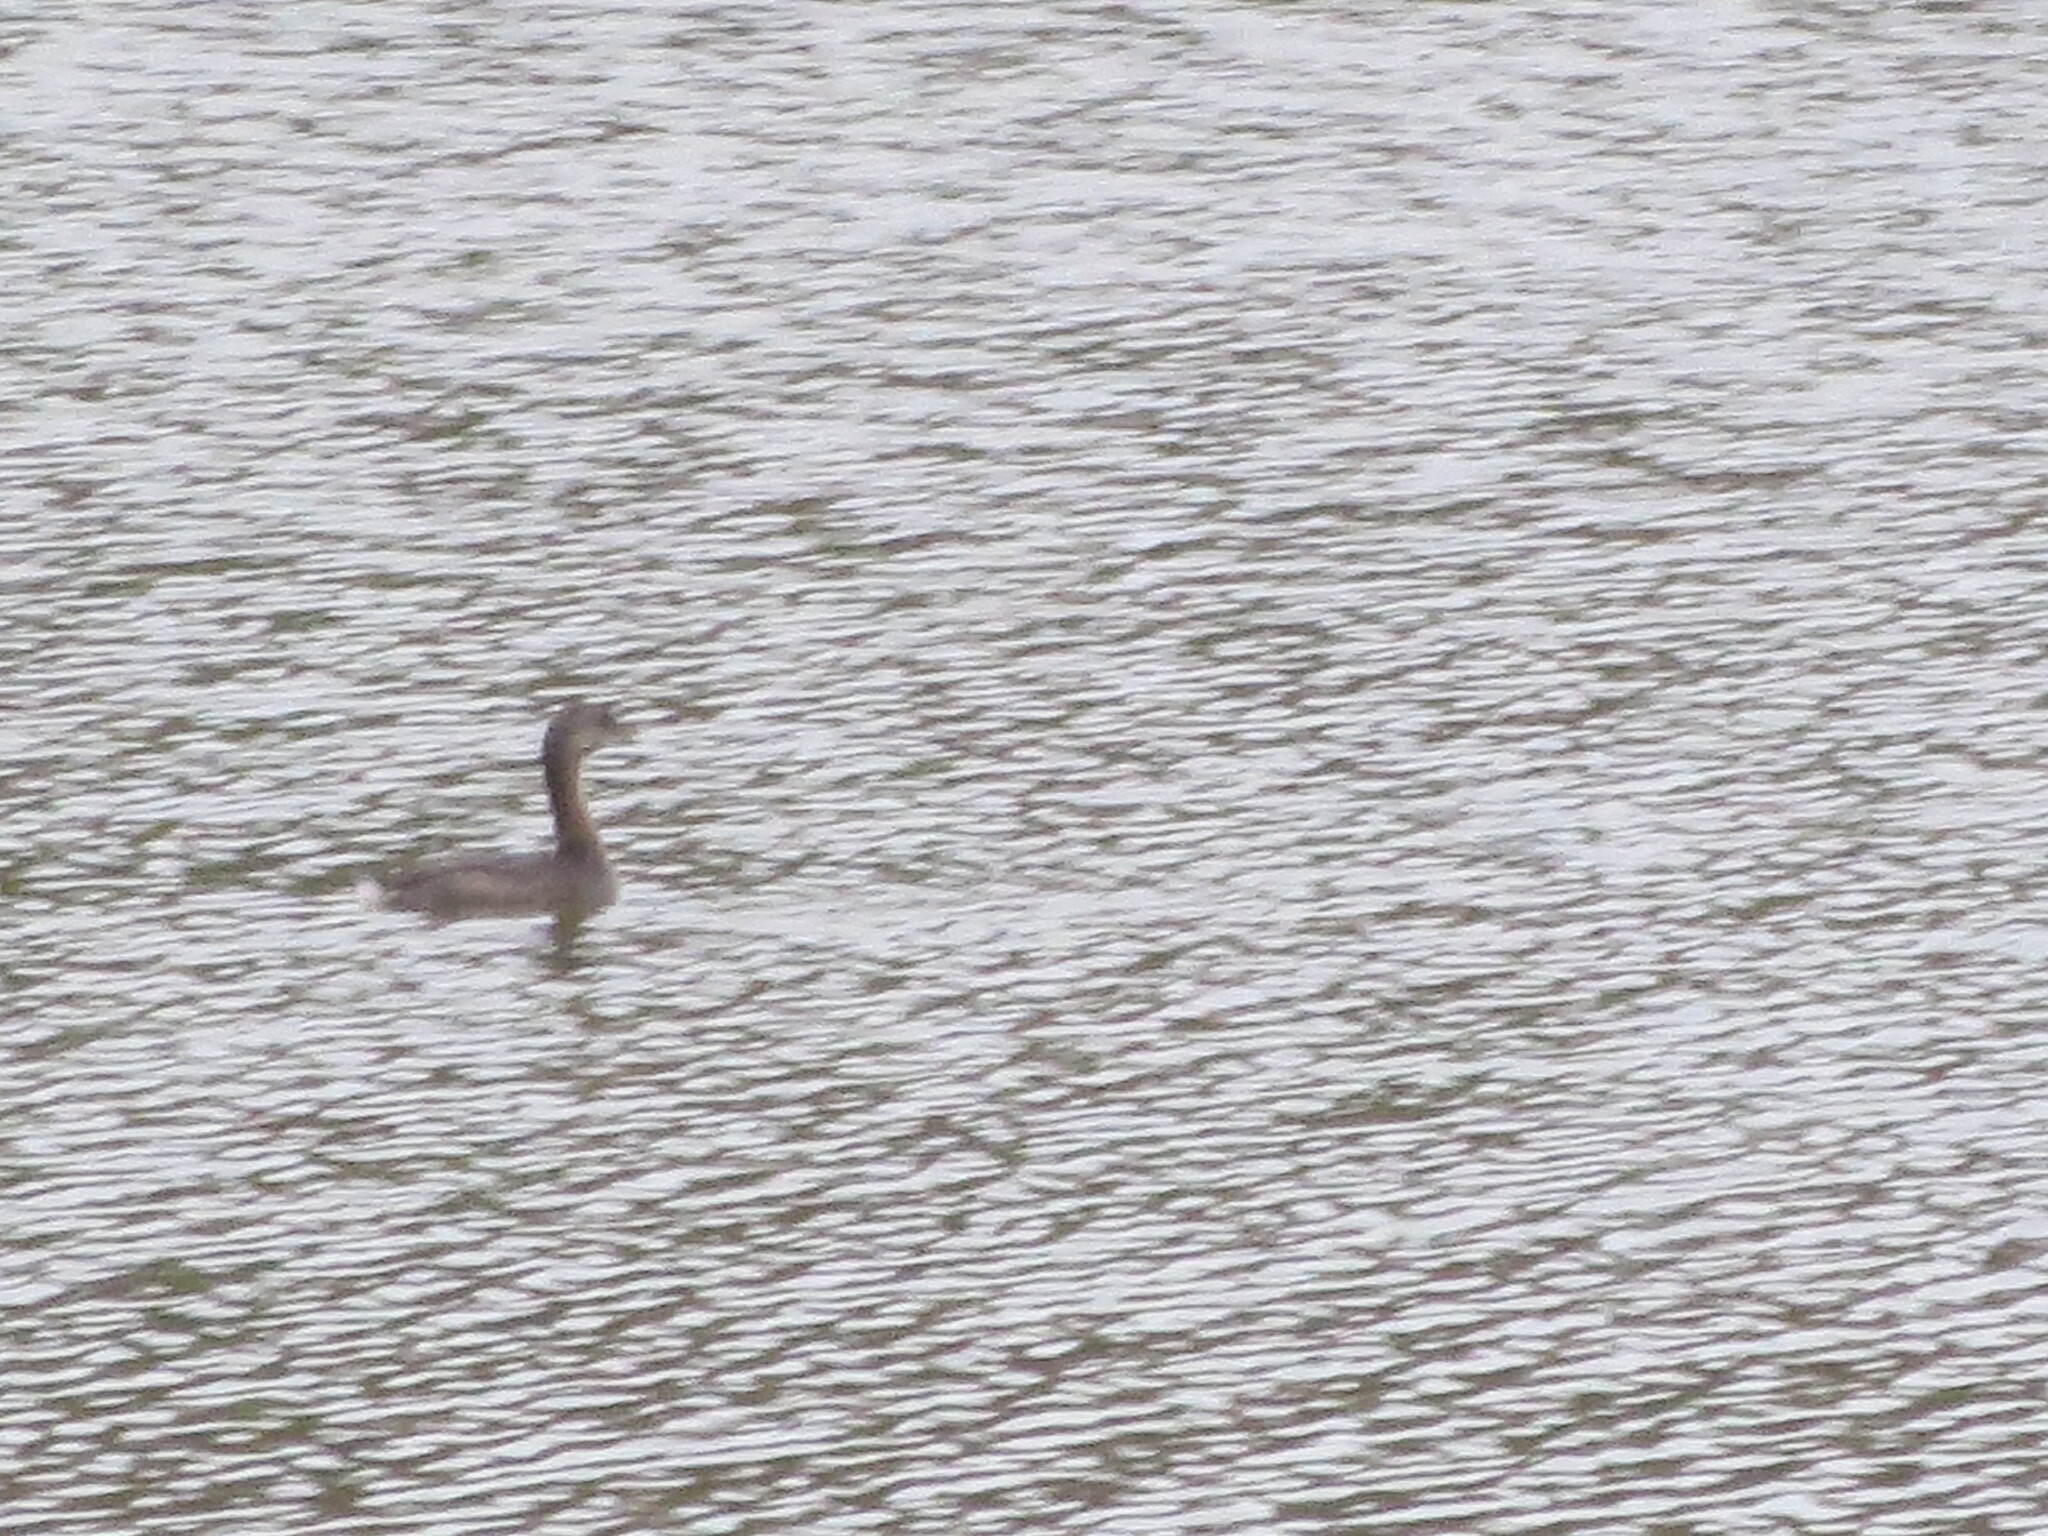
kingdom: Animalia
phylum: Chordata
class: Aves
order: Podicipediformes
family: Podicipedidae
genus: Podilymbus
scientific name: Podilymbus podiceps
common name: Pied-billed grebe
